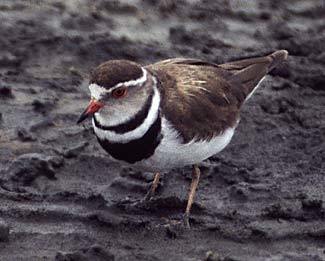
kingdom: Animalia
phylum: Chordata
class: Aves
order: Charadriiformes
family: Charadriidae
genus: Charadrius
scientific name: Charadrius tricollaris
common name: Three-banded plover
